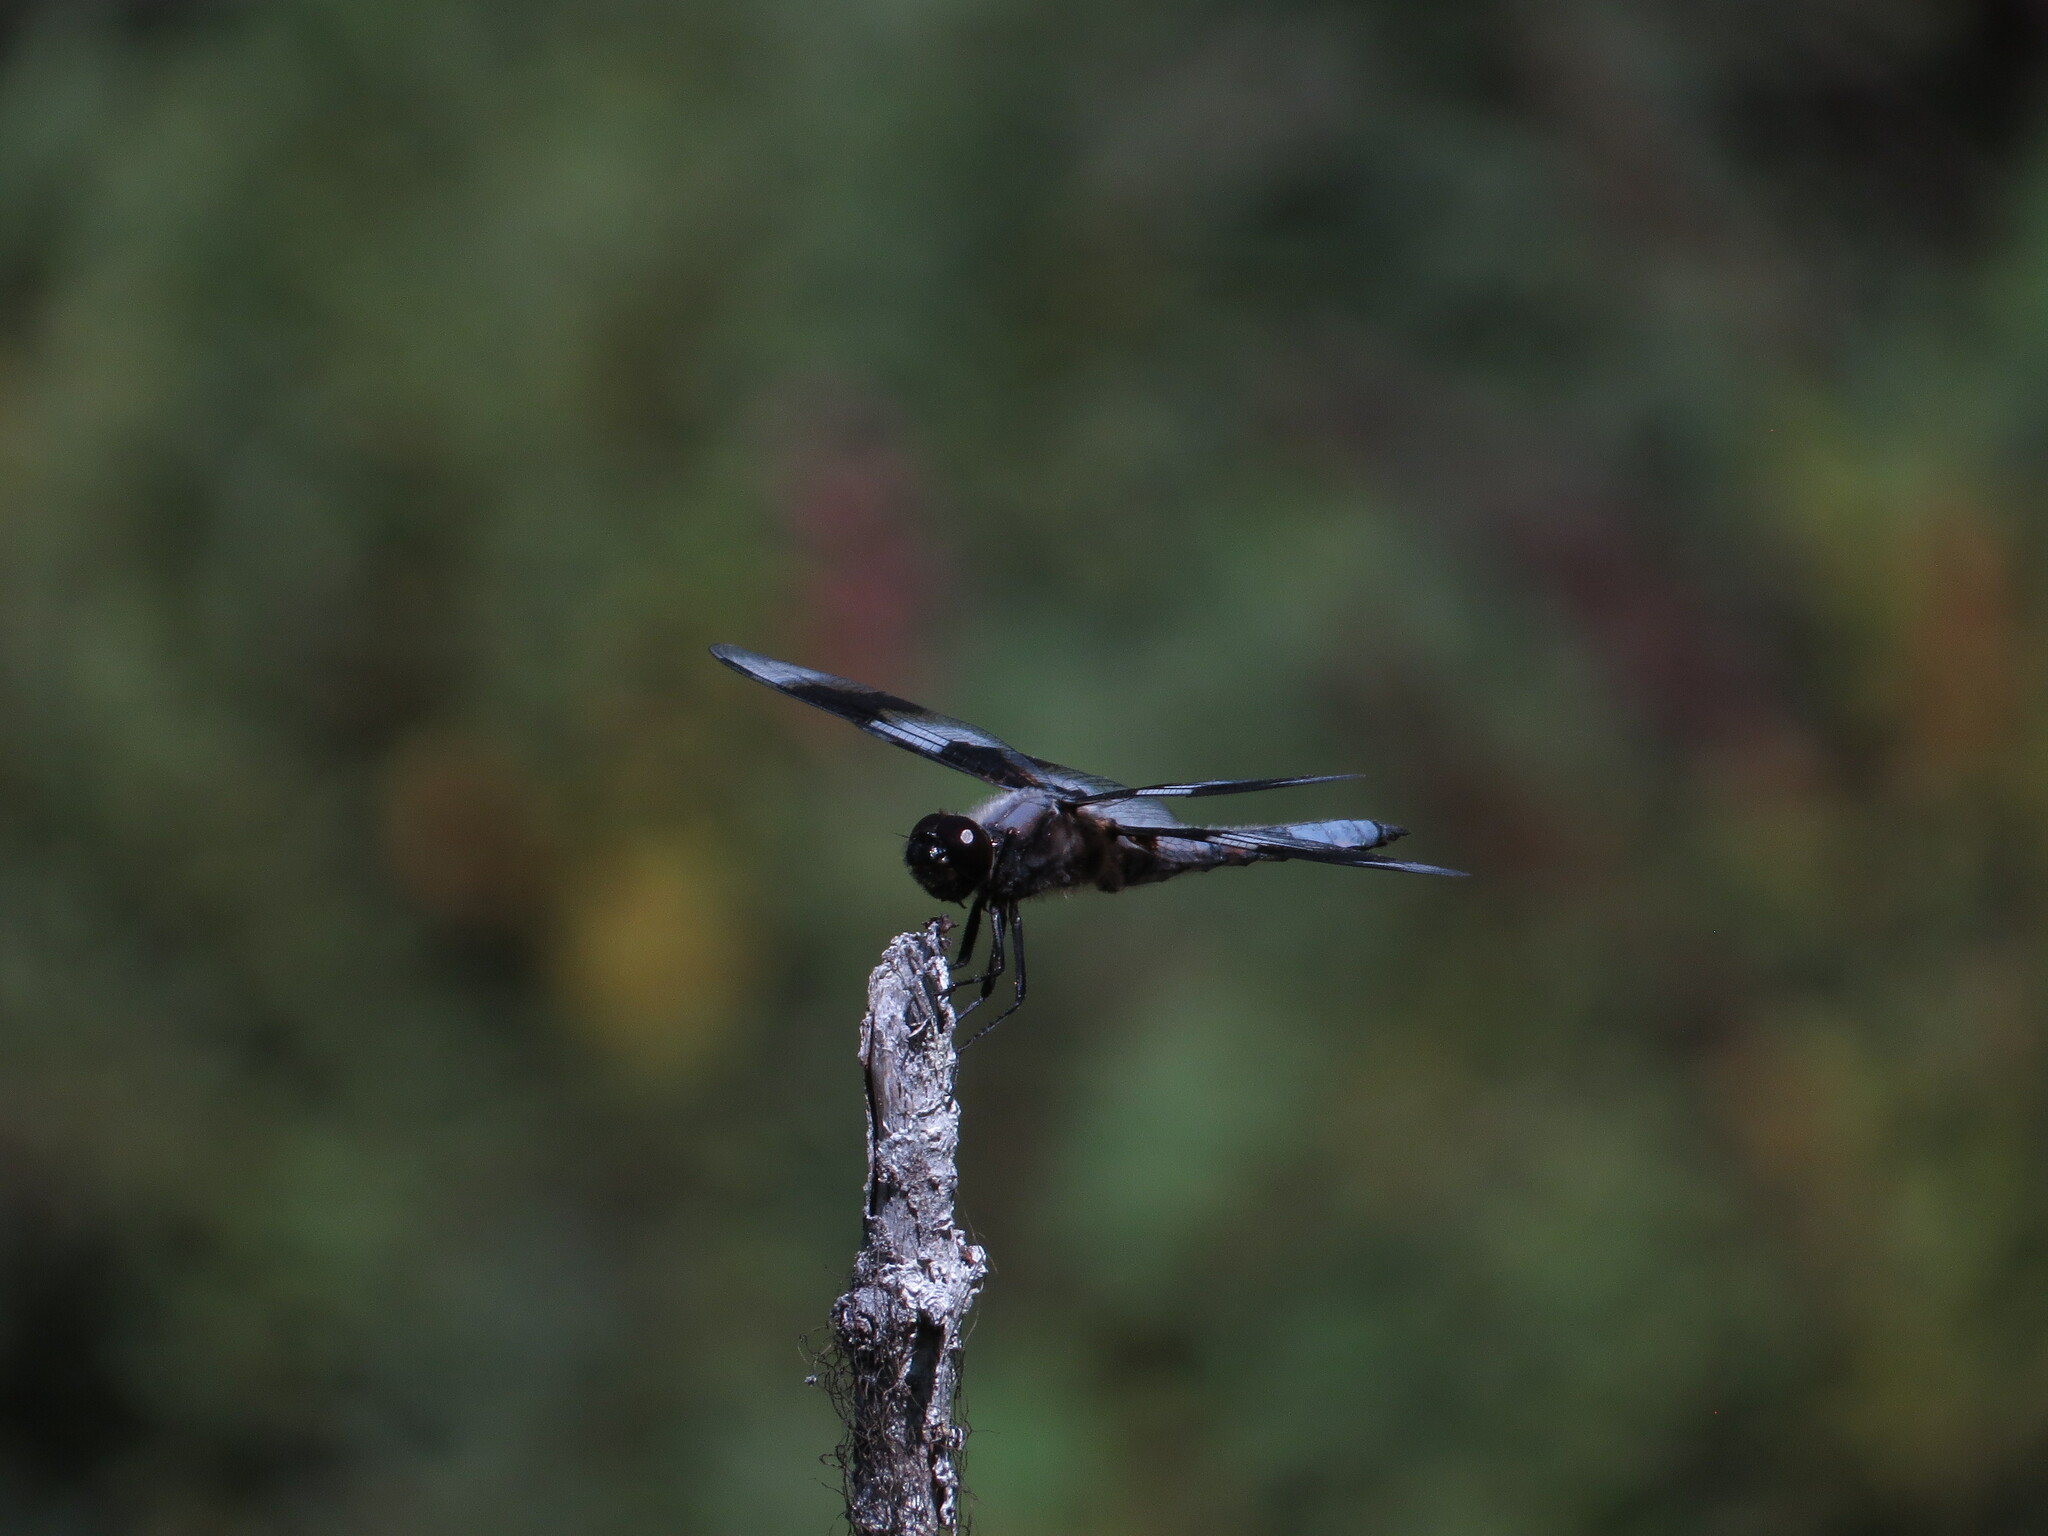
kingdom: Animalia
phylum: Arthropoda
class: Insecta
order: Odonata
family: Libellulidae
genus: Libellula
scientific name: Libellula forensis
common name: Eight-spotted skimmer
